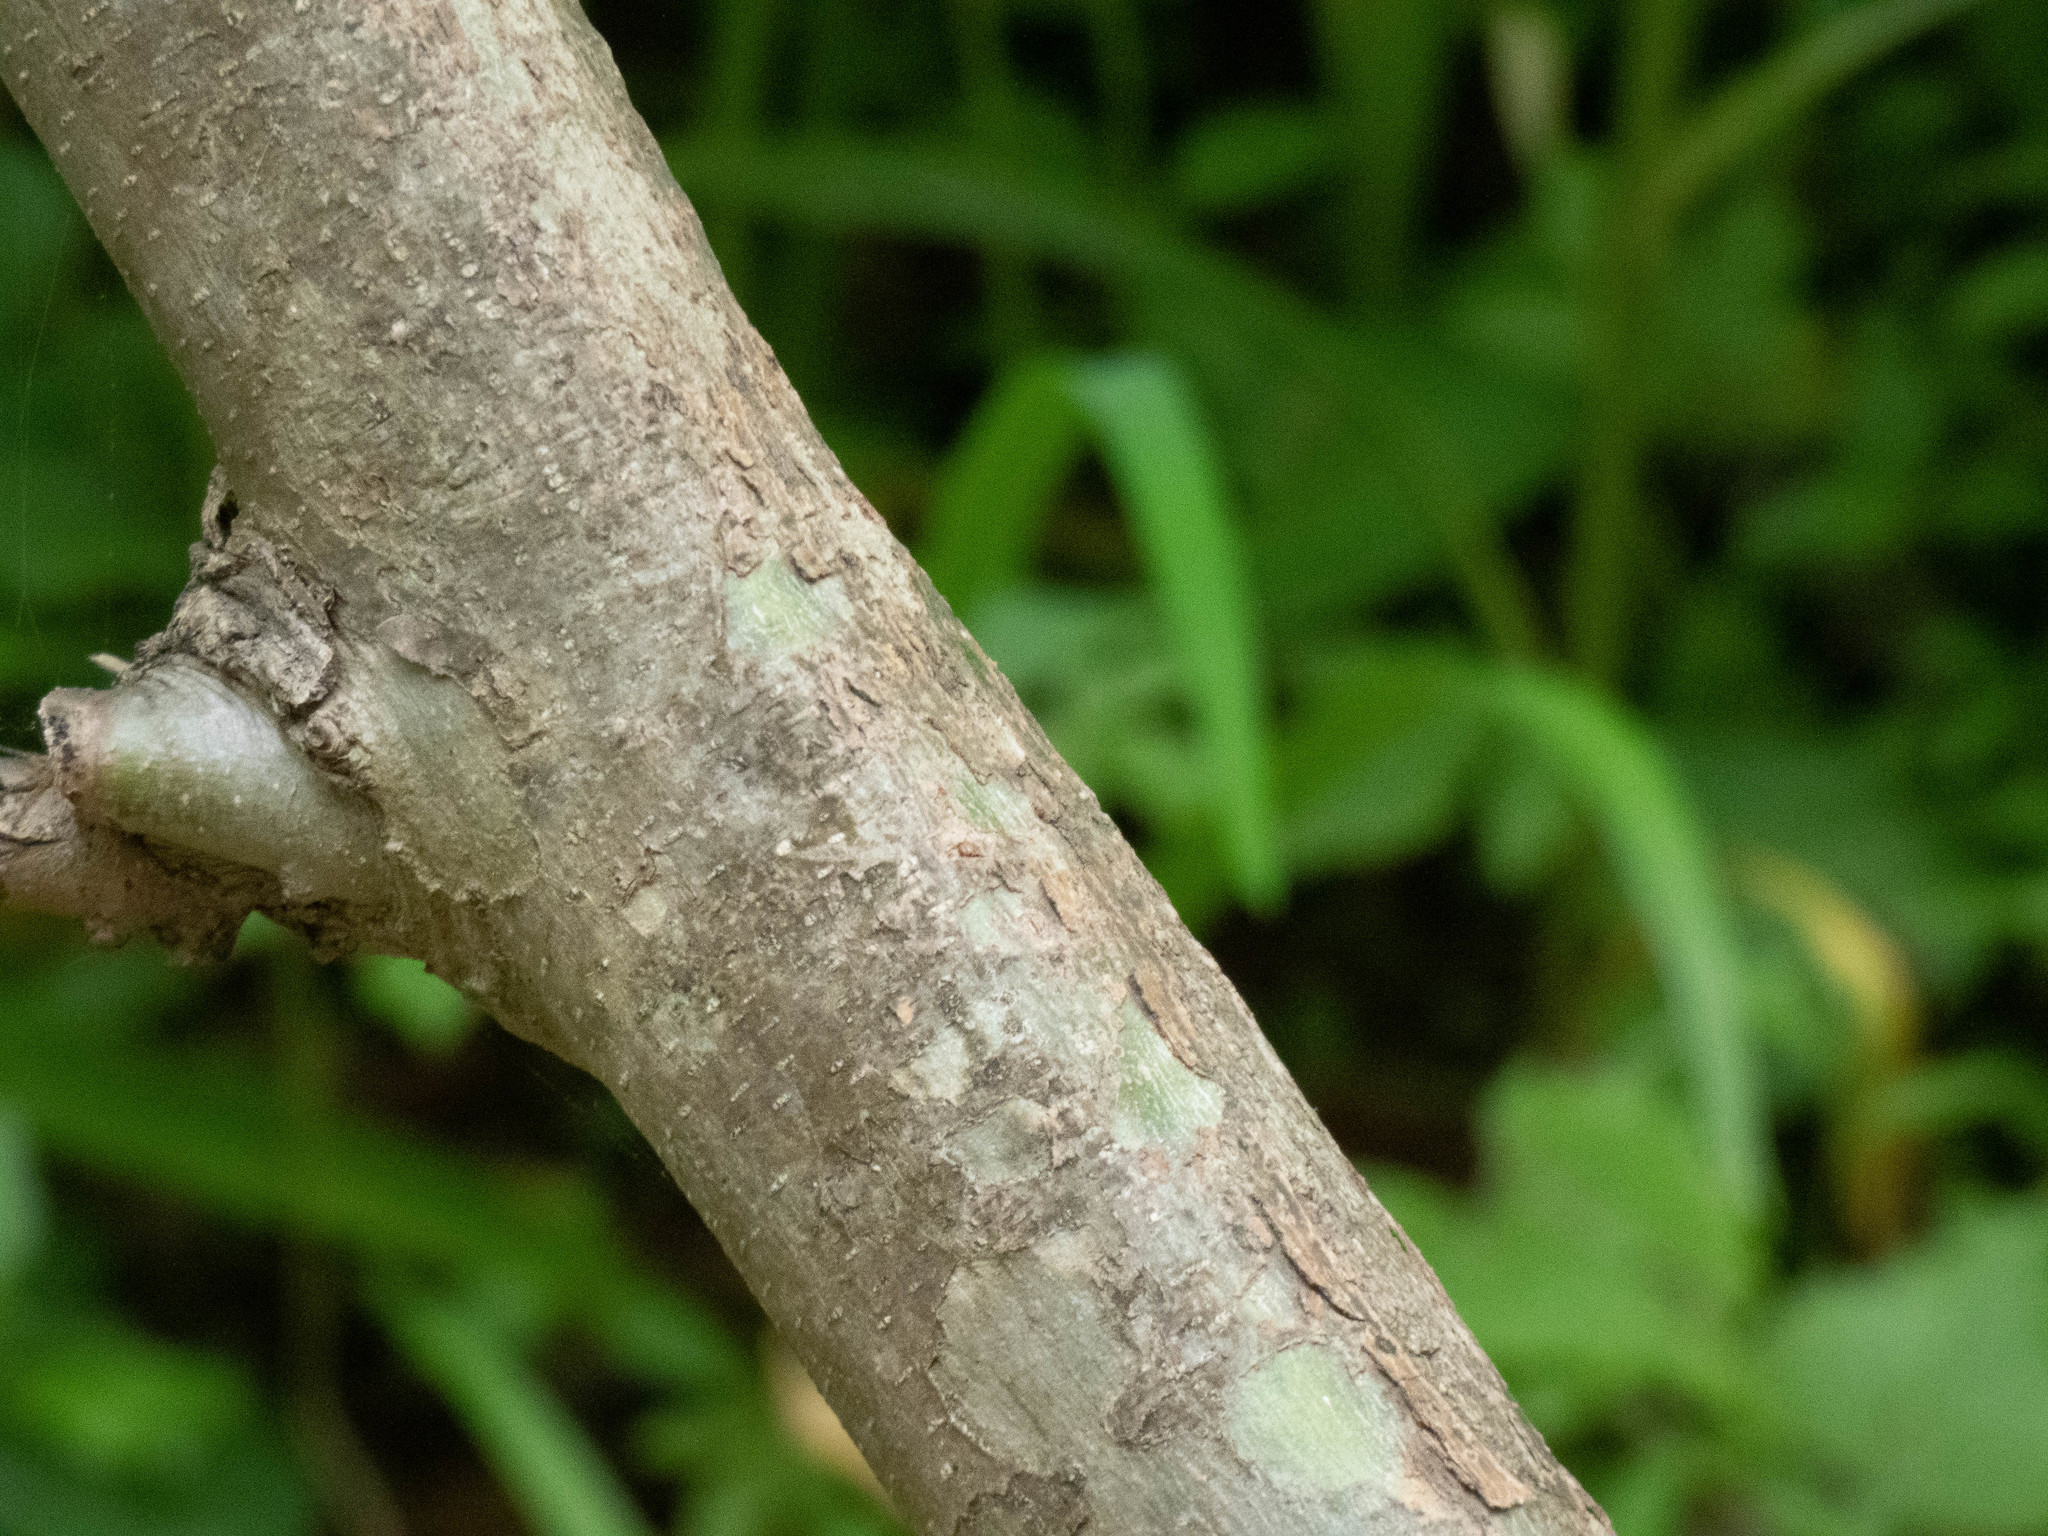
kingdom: Plantae
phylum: Tracheophyta
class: Magnoliopsida
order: Proteales
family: Platanaceae
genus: Platanus
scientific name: Platanus occidentalis
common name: American sycamore
